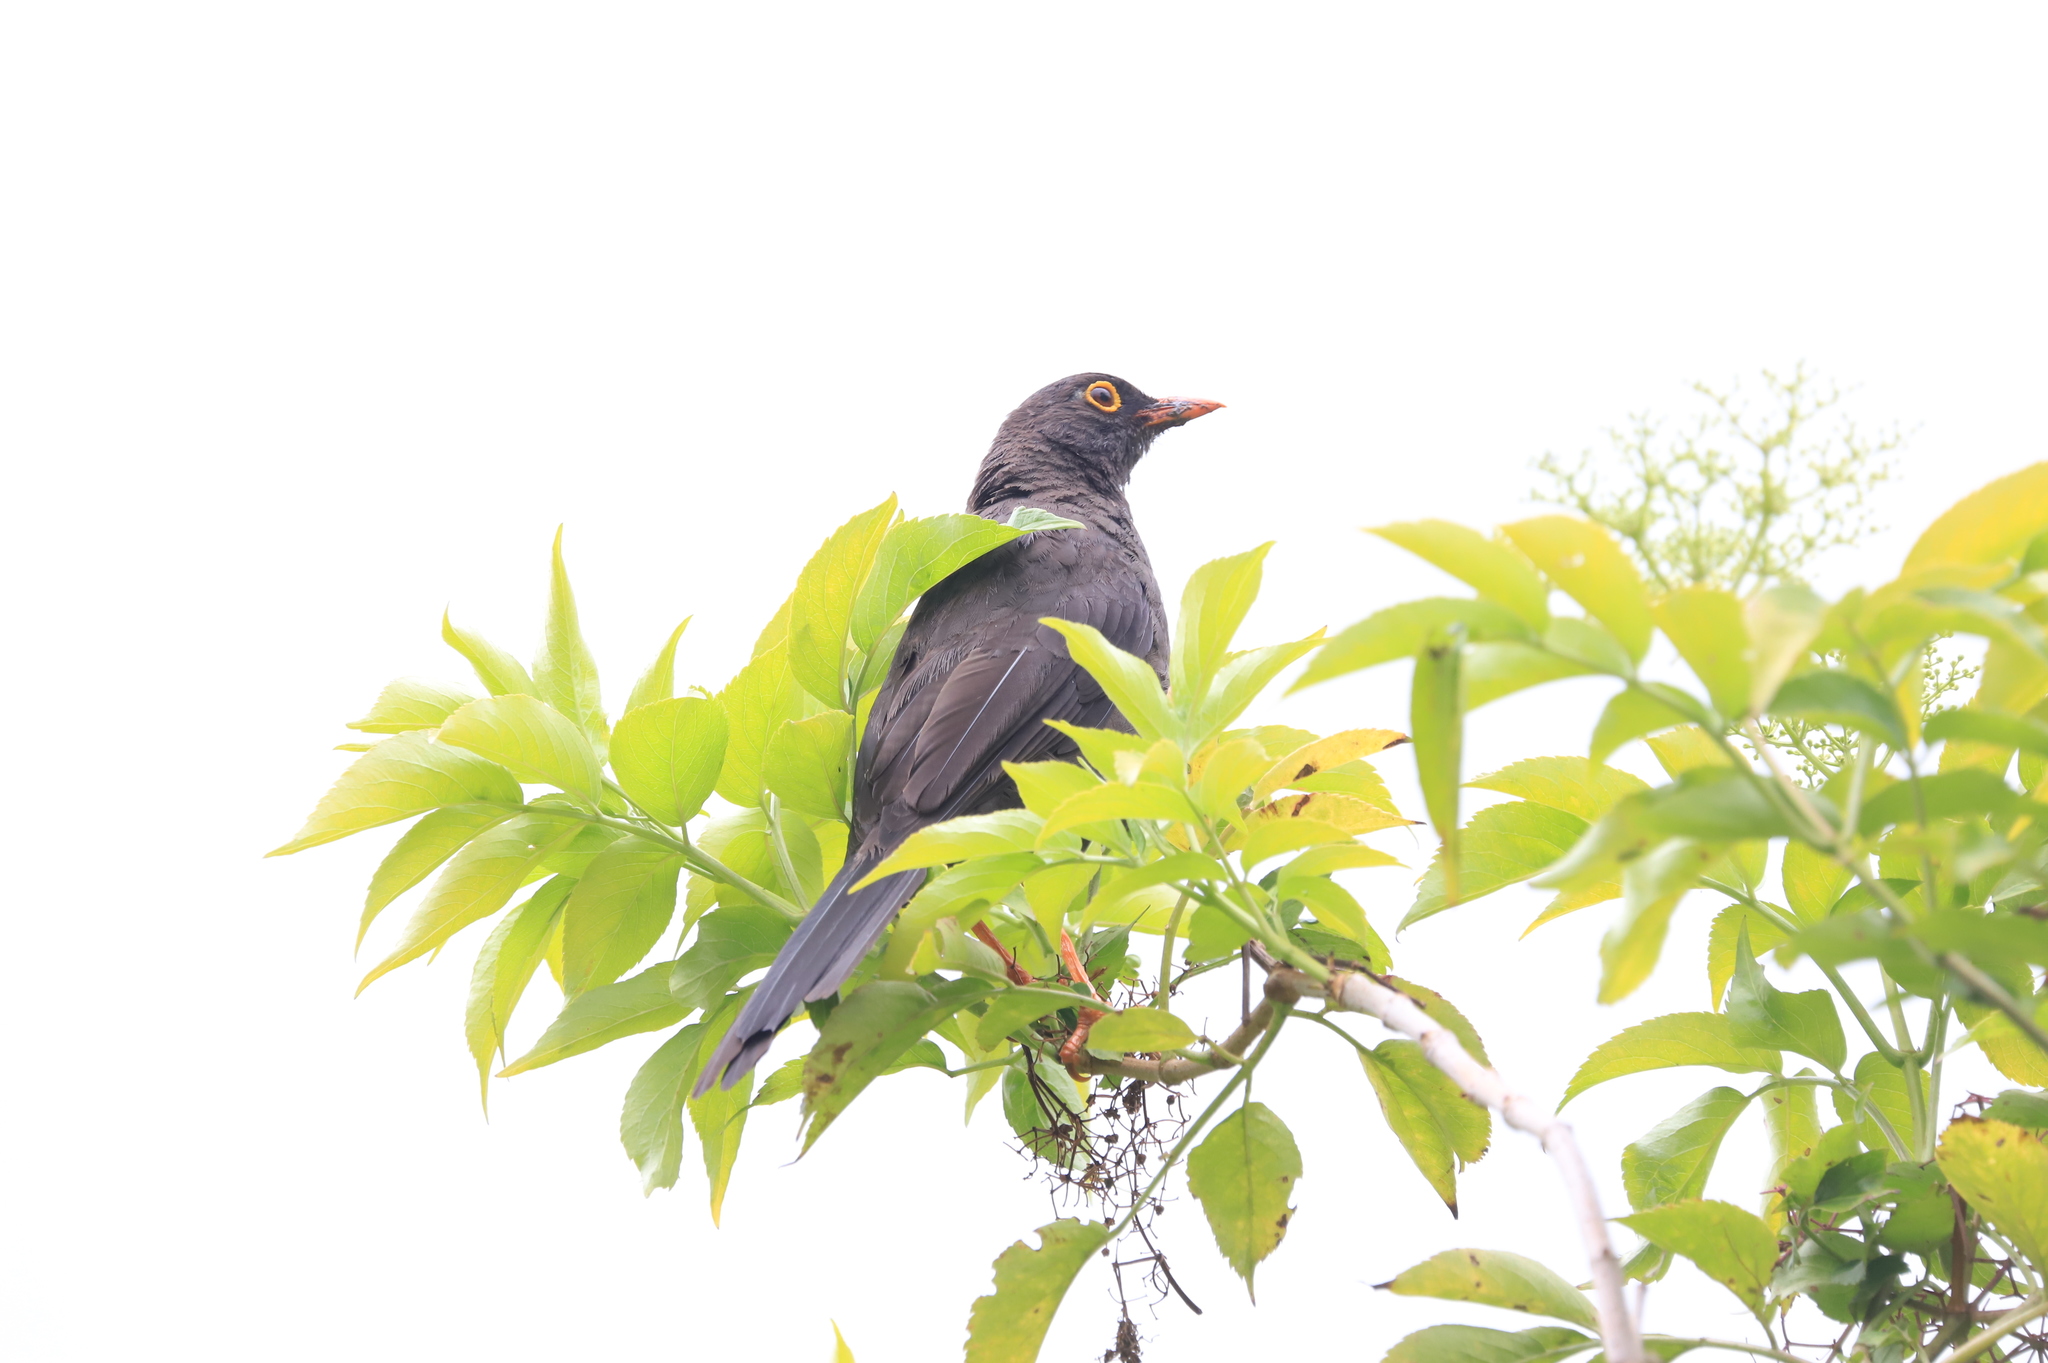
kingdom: Animalia
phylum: Chordata
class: Aves
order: Passeriformes
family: Turdidae
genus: Turdus
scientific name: Turdus fuscater
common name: Great thrush
